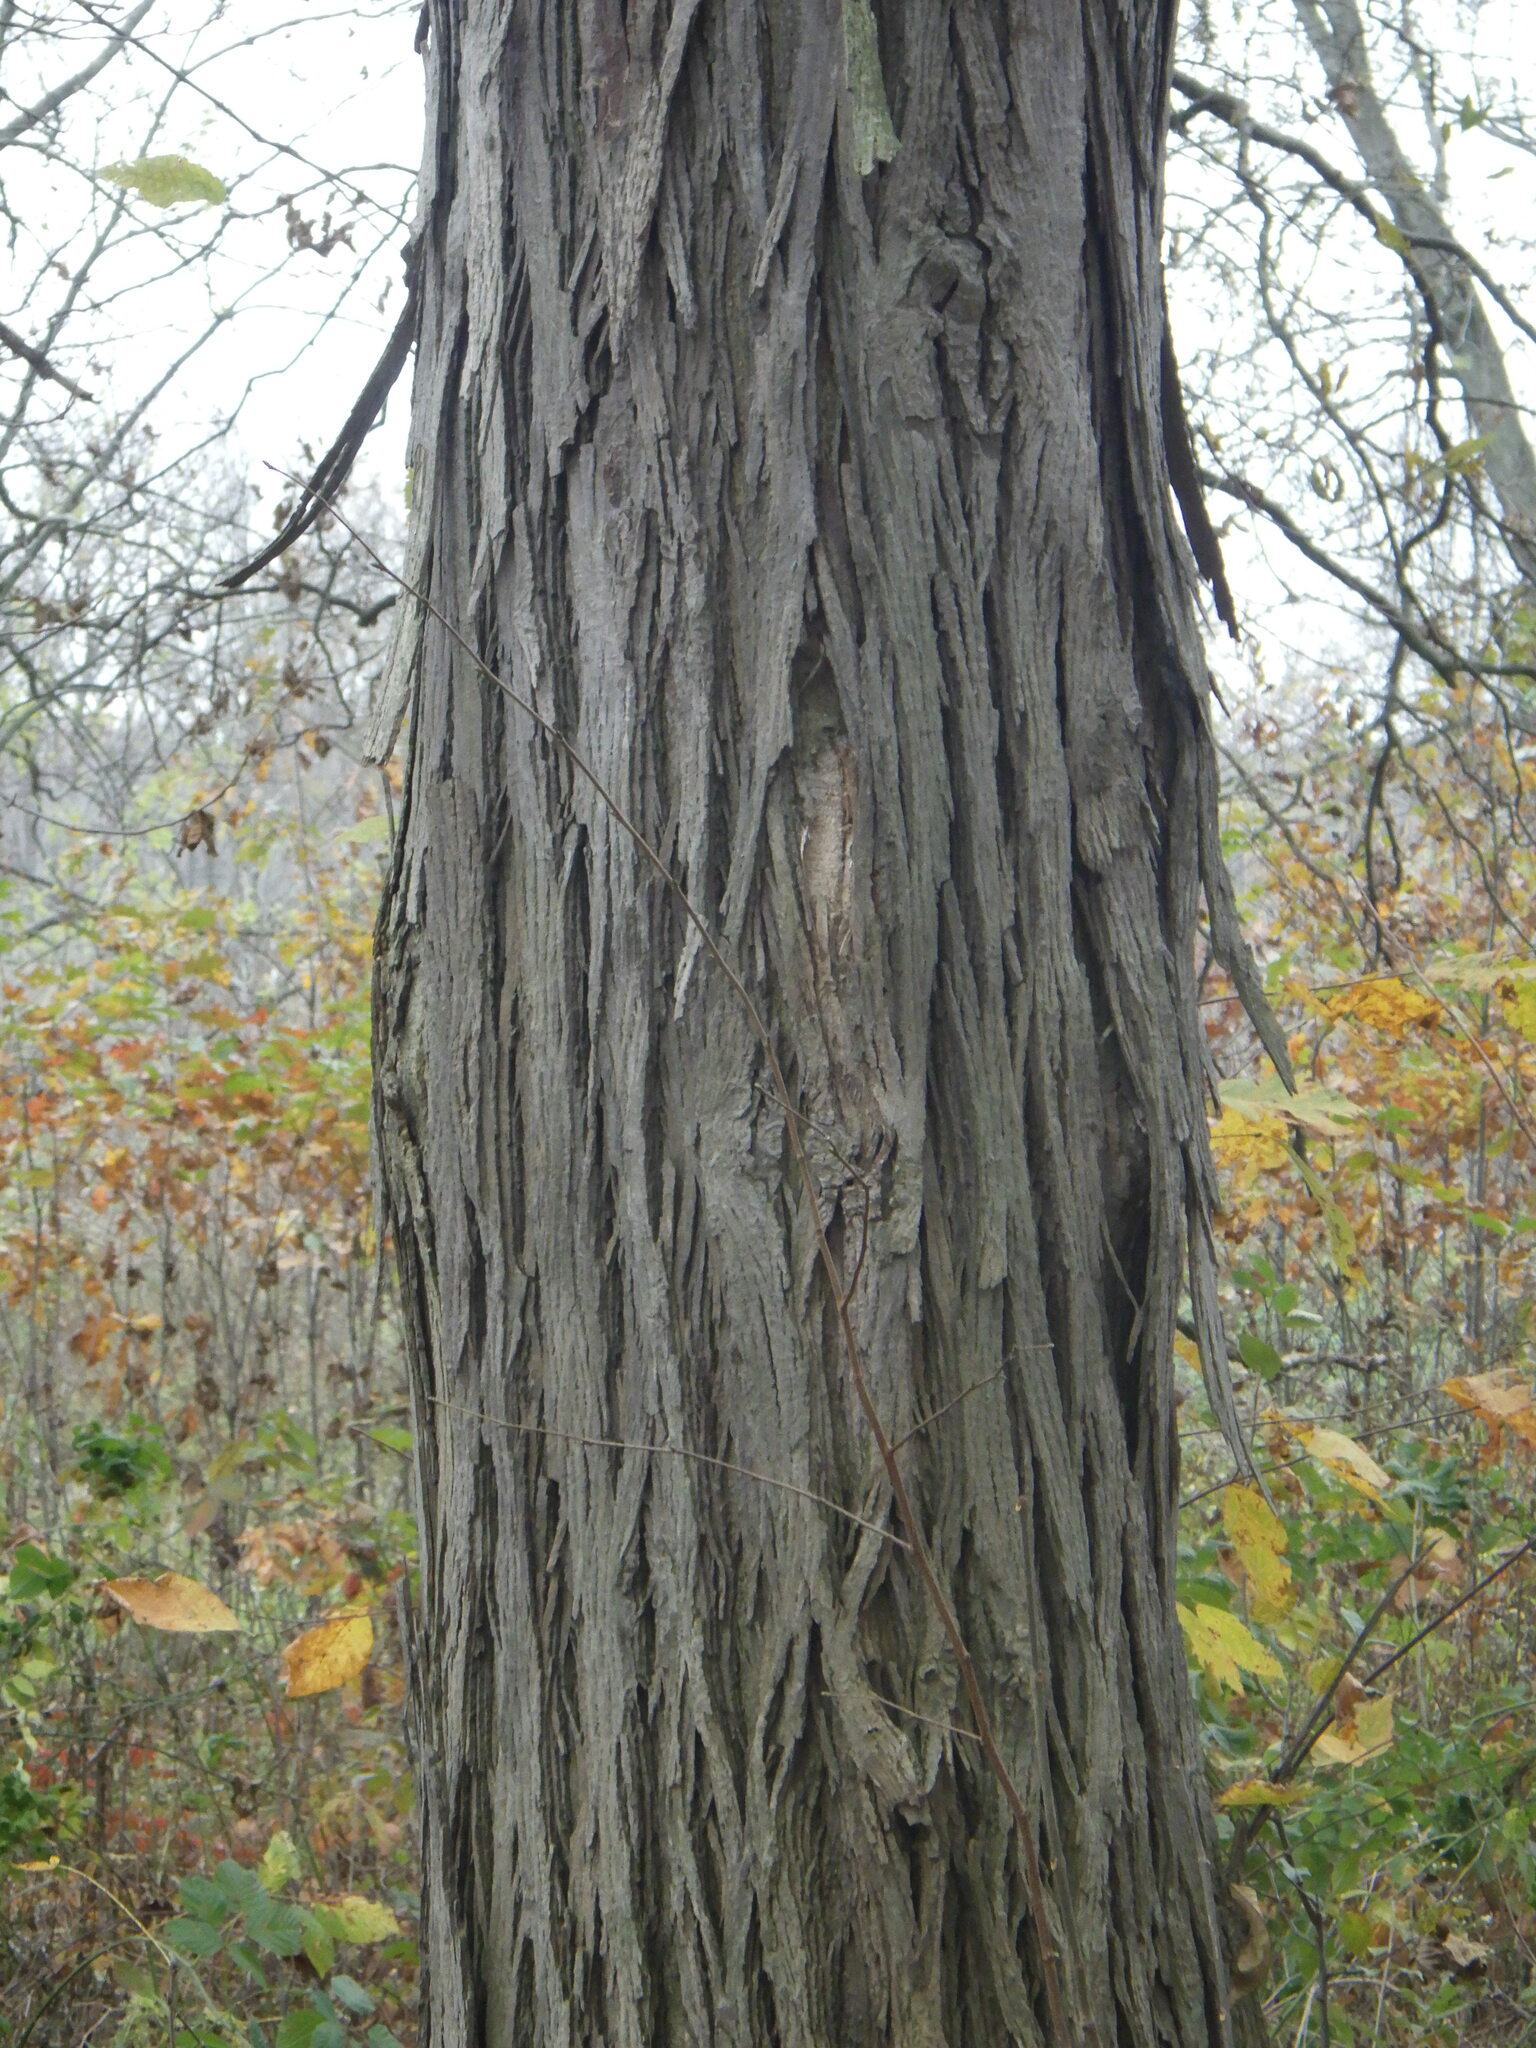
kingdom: Plantae
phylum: Tracheophyta
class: Magnoliopsida
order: Fagales
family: Juglandaceae
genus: Carya
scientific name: Carya ovata
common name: Shagbark hickory
